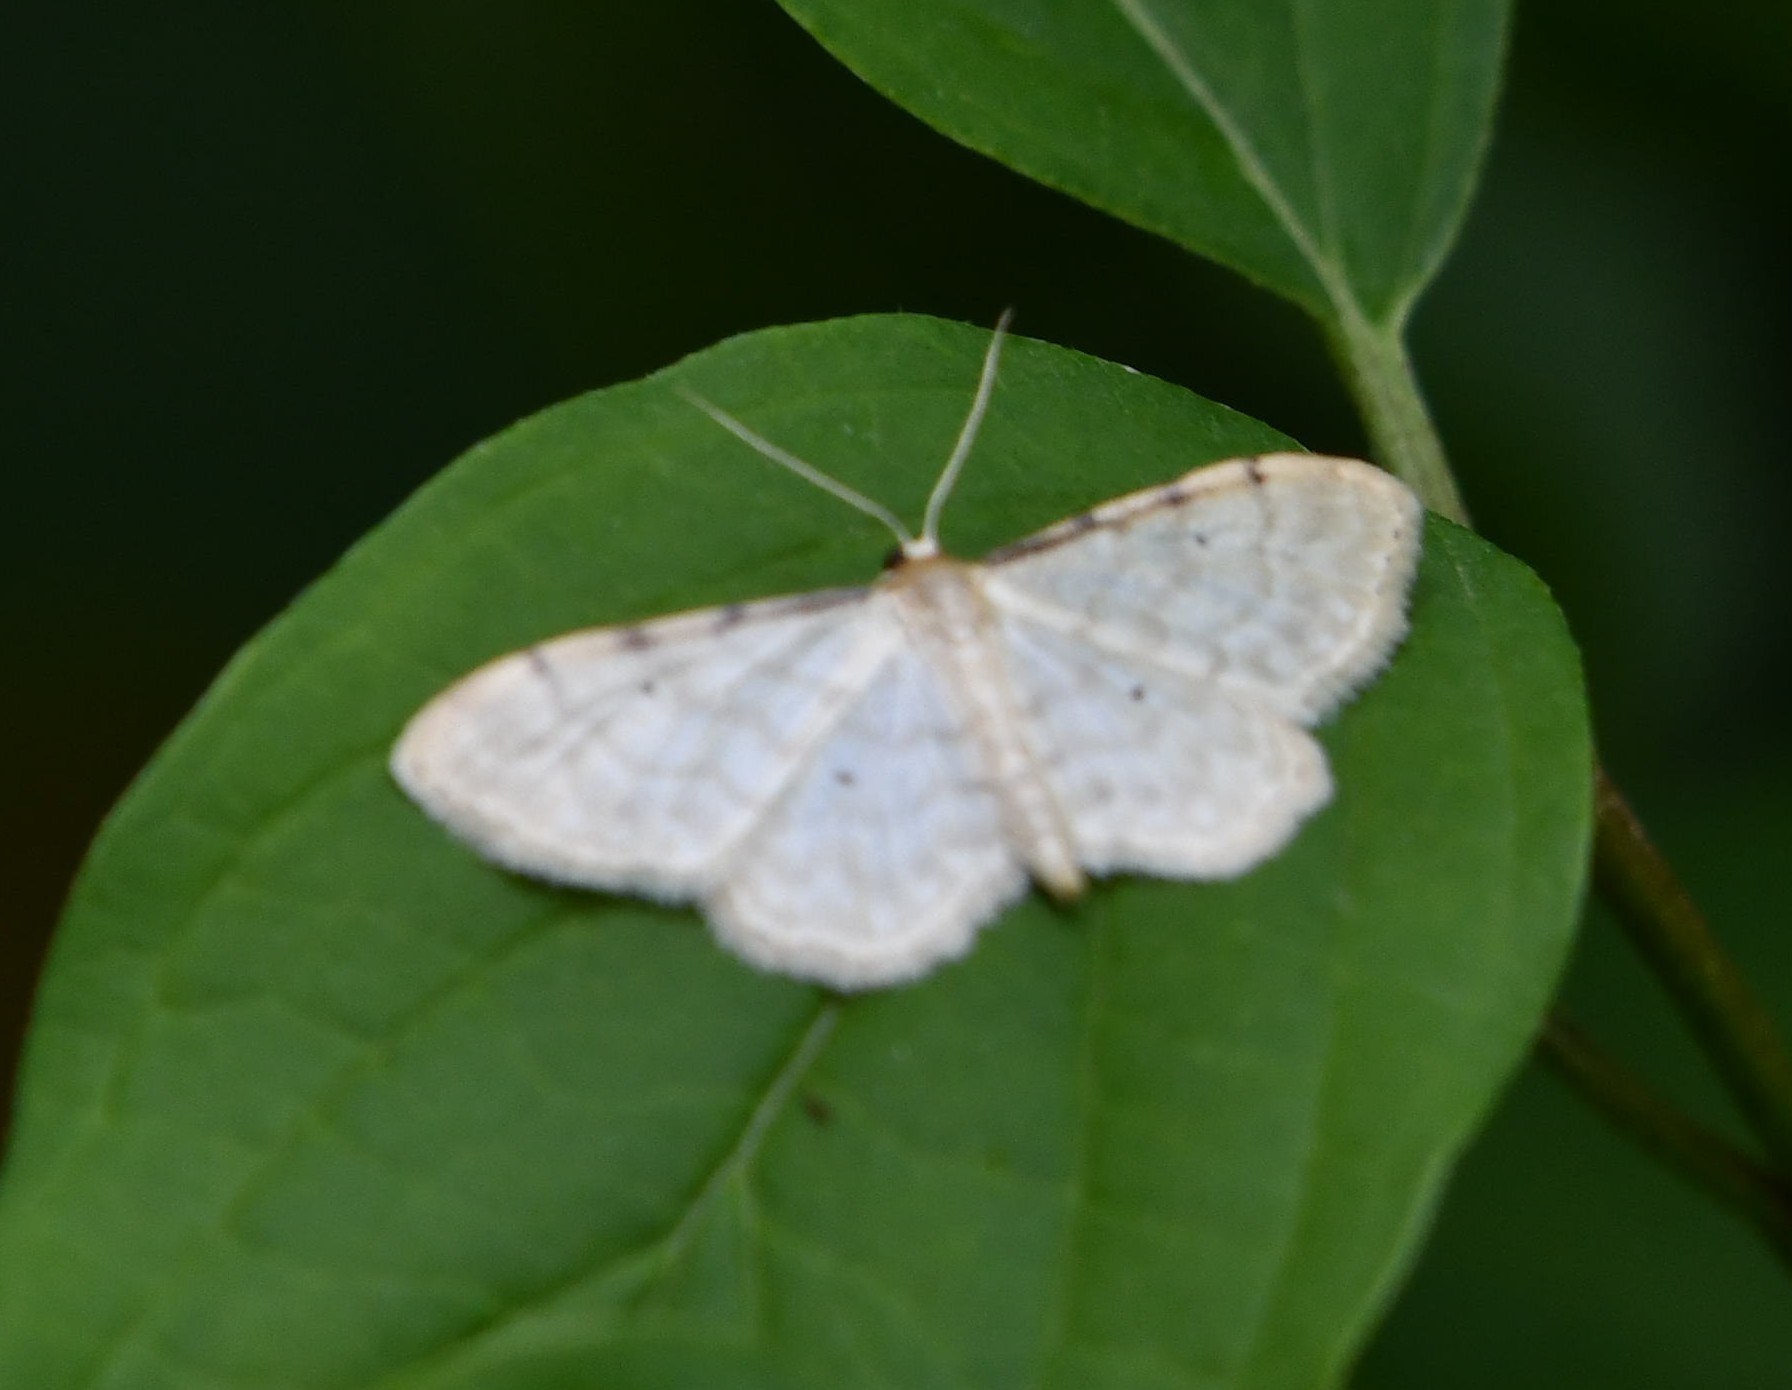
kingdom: Animalia
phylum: Arthropoda
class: Insecta
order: Lepidoptera
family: Geometridae
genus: Idaea
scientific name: Idaea fuscovenosa
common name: Dwarf cream wave
